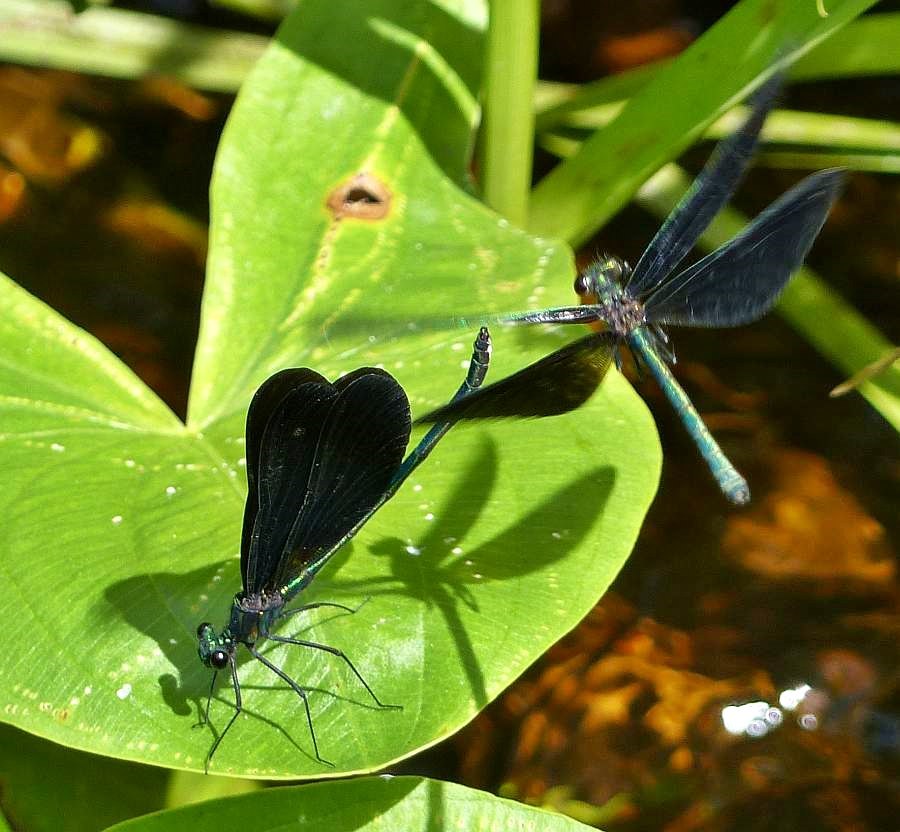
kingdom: Animalia
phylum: Arthropoda
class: Insecta
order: Odonata
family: Calopterygidae
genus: Calopteryx
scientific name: Calopteryx maculata
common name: Ebony jewelwing
